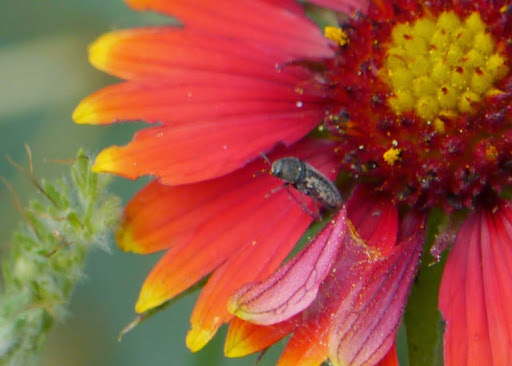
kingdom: Animalia
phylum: Arthropoda
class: Insecta
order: Coleoptera
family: Buprestidae
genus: Acmaeodera
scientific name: Acmaeodera neglecta
